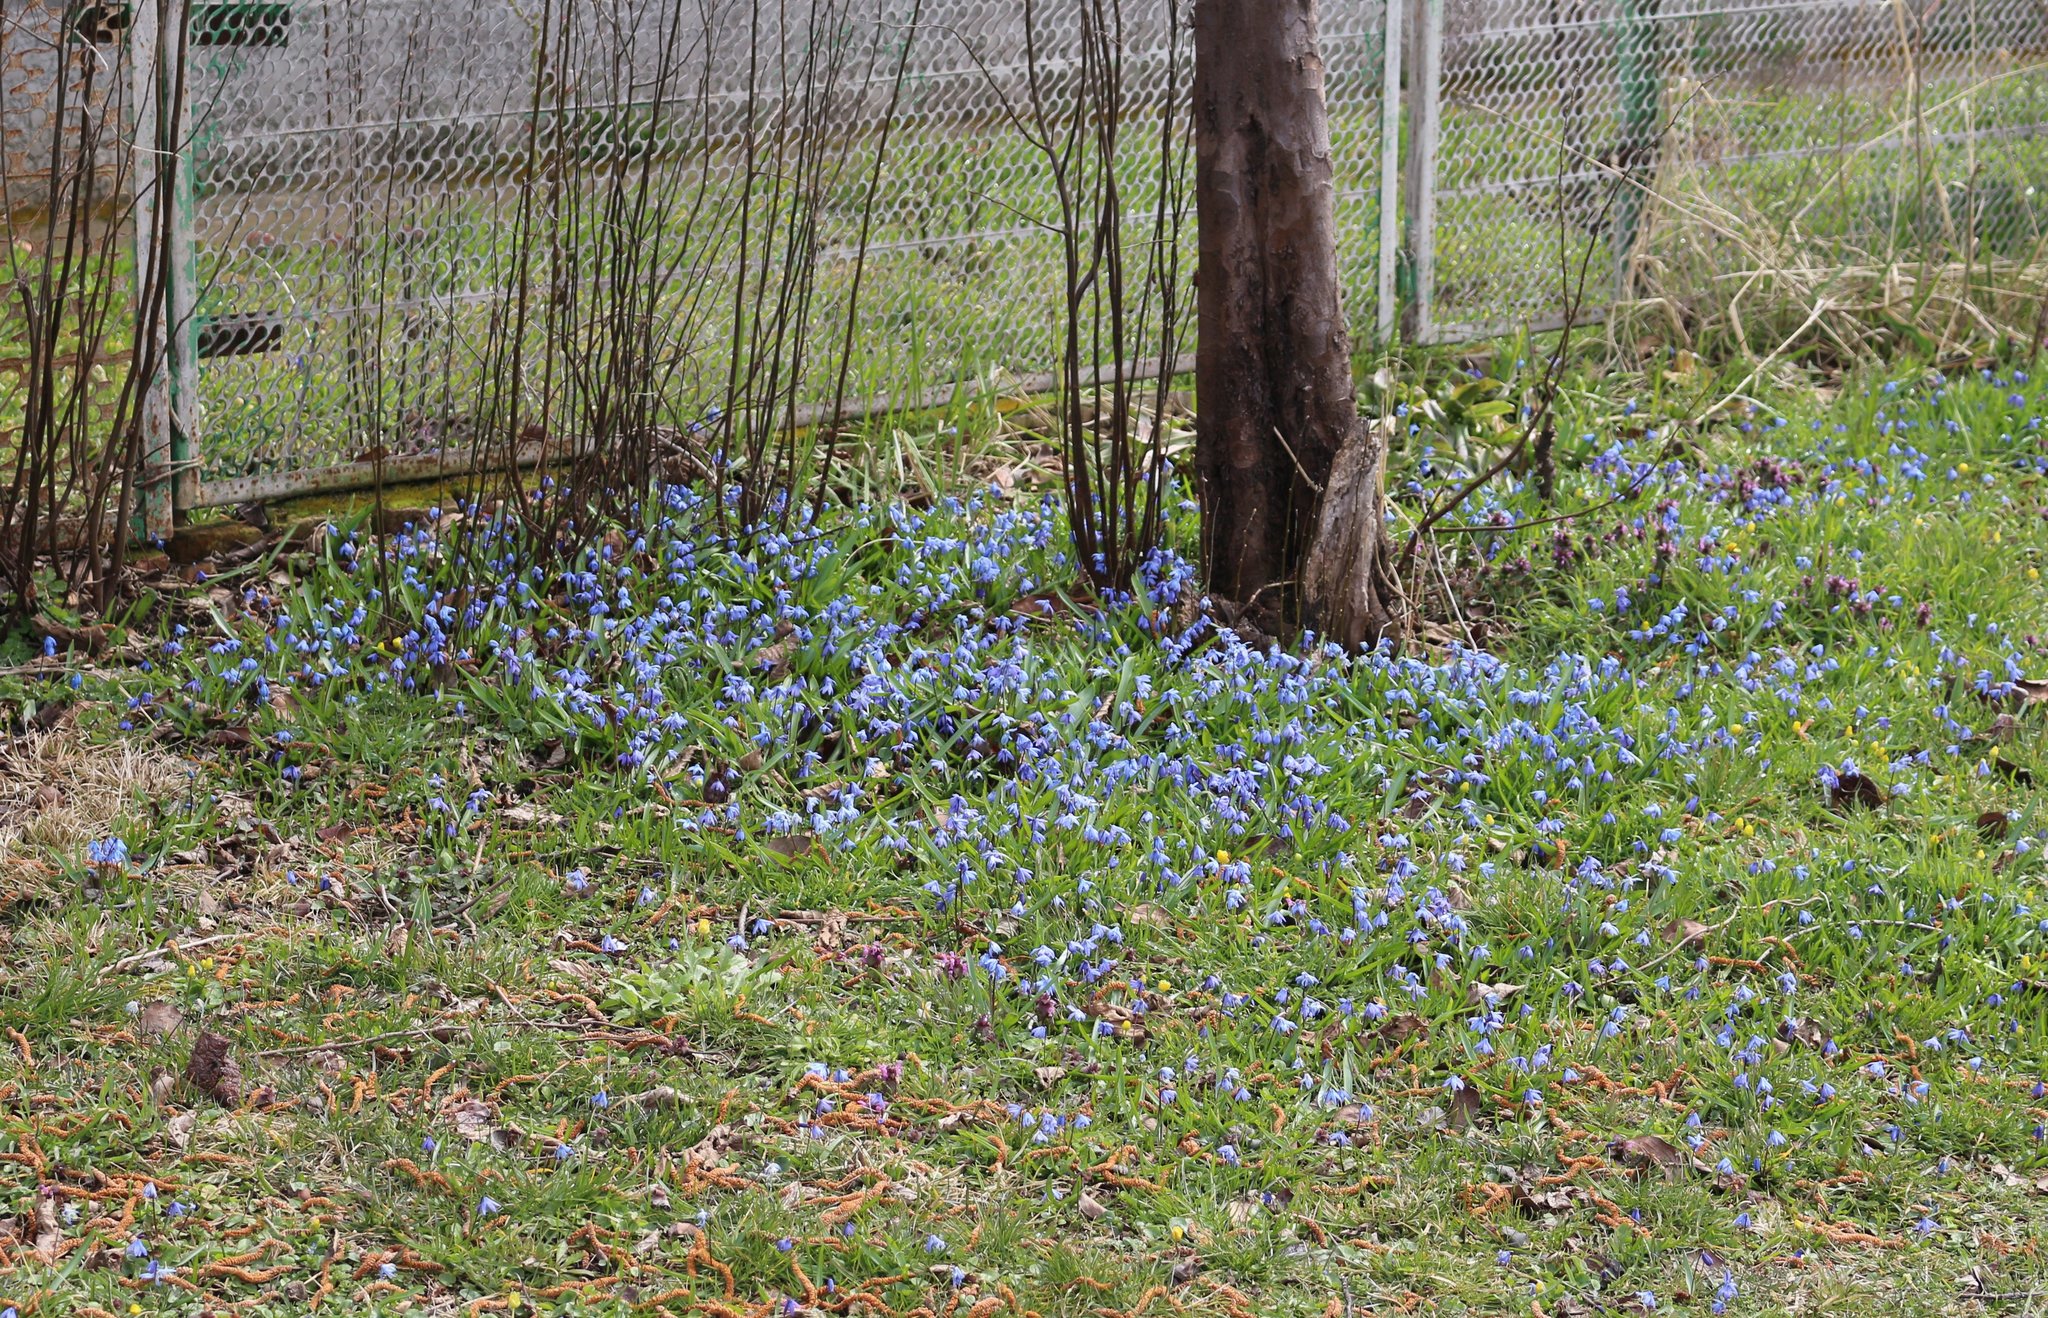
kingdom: Plantae
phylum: Tracheophyta
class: Liliopsida
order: Asparagales
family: Asparagaceae
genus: Scilla
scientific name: Scilla siberica
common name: Siberian squill
